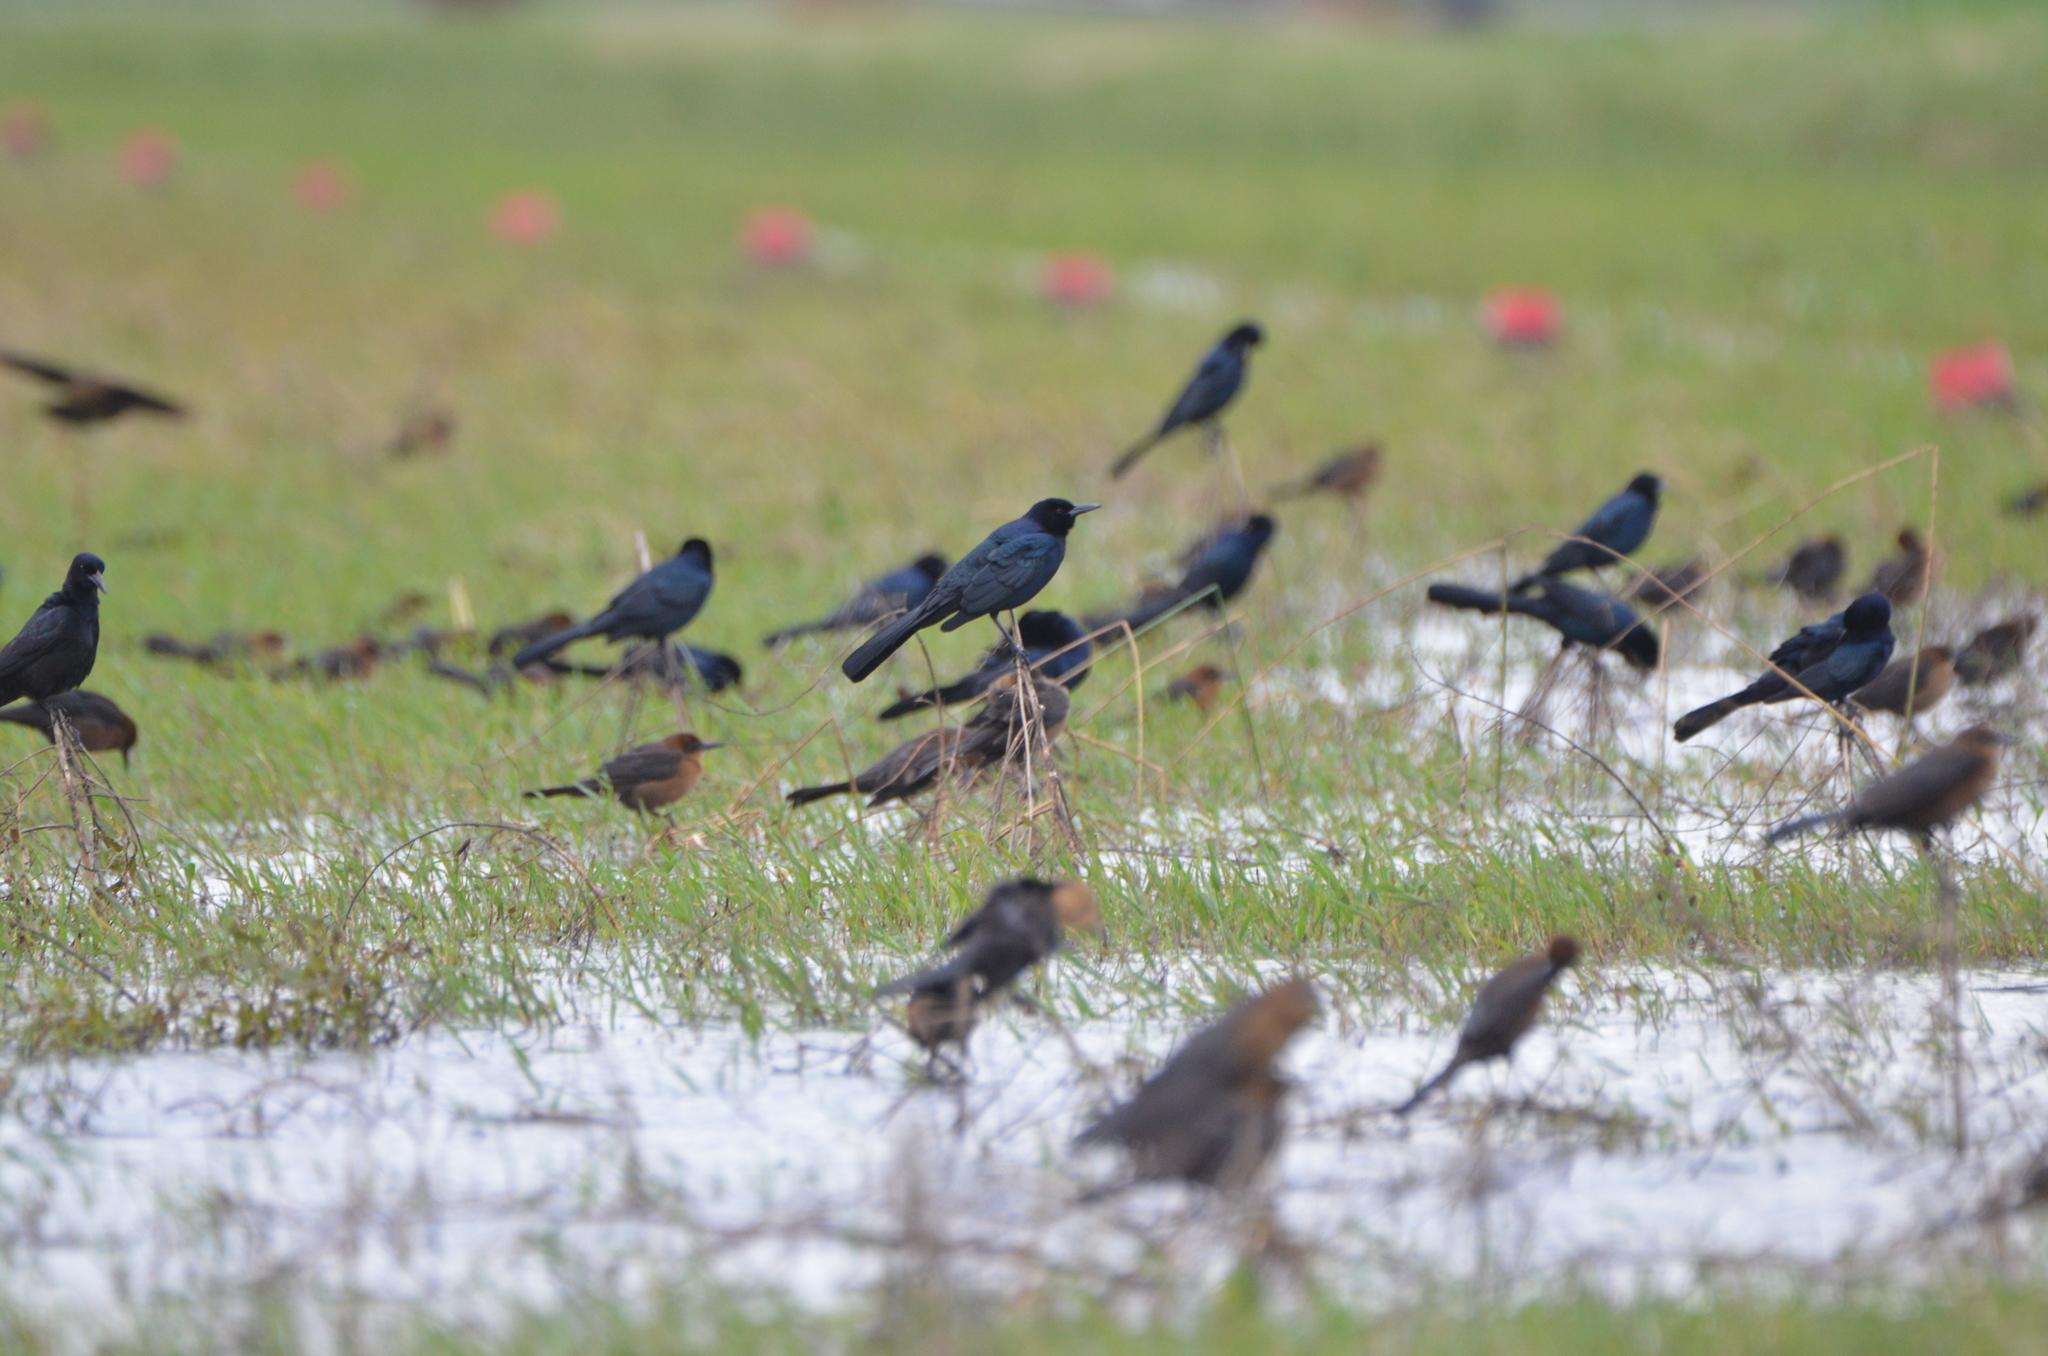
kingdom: Animalia
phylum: Chordata
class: Aves
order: Passeriformes
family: Icteridae
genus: Quiscalus
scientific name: Quiscalus major
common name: Boat-tailed grackle
